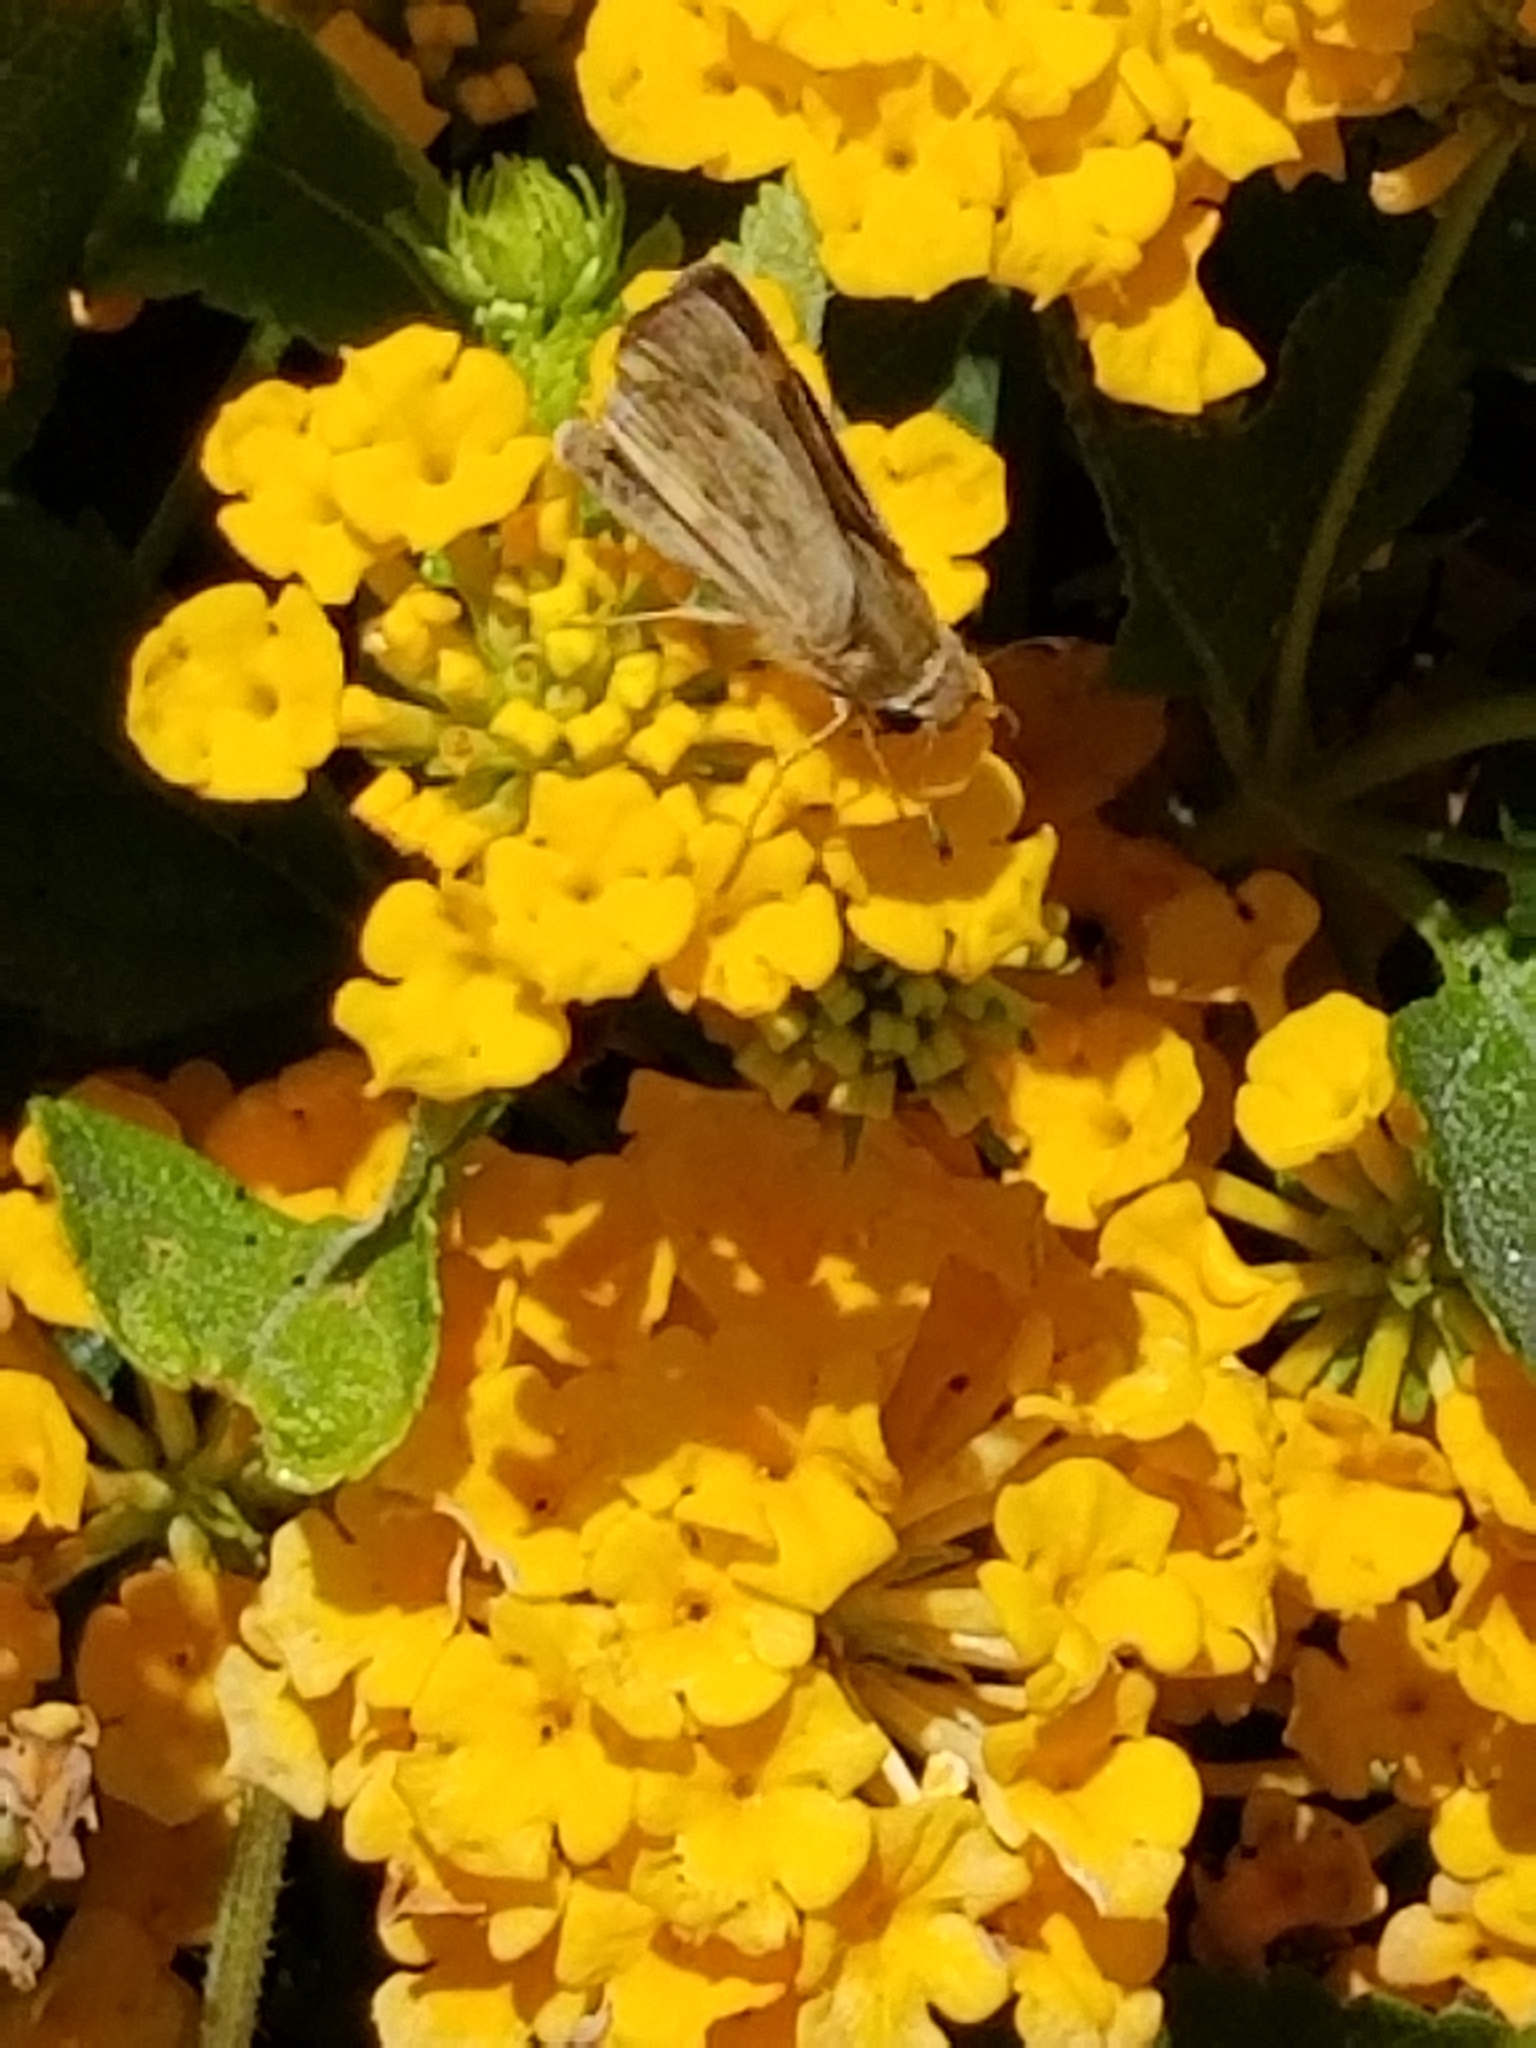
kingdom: Animalia
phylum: Arthropoda
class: Insecta
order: Lepidoptera
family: Hesperiidae
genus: Hylephila
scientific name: Hylephila phyleus
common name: Fiery skipper
